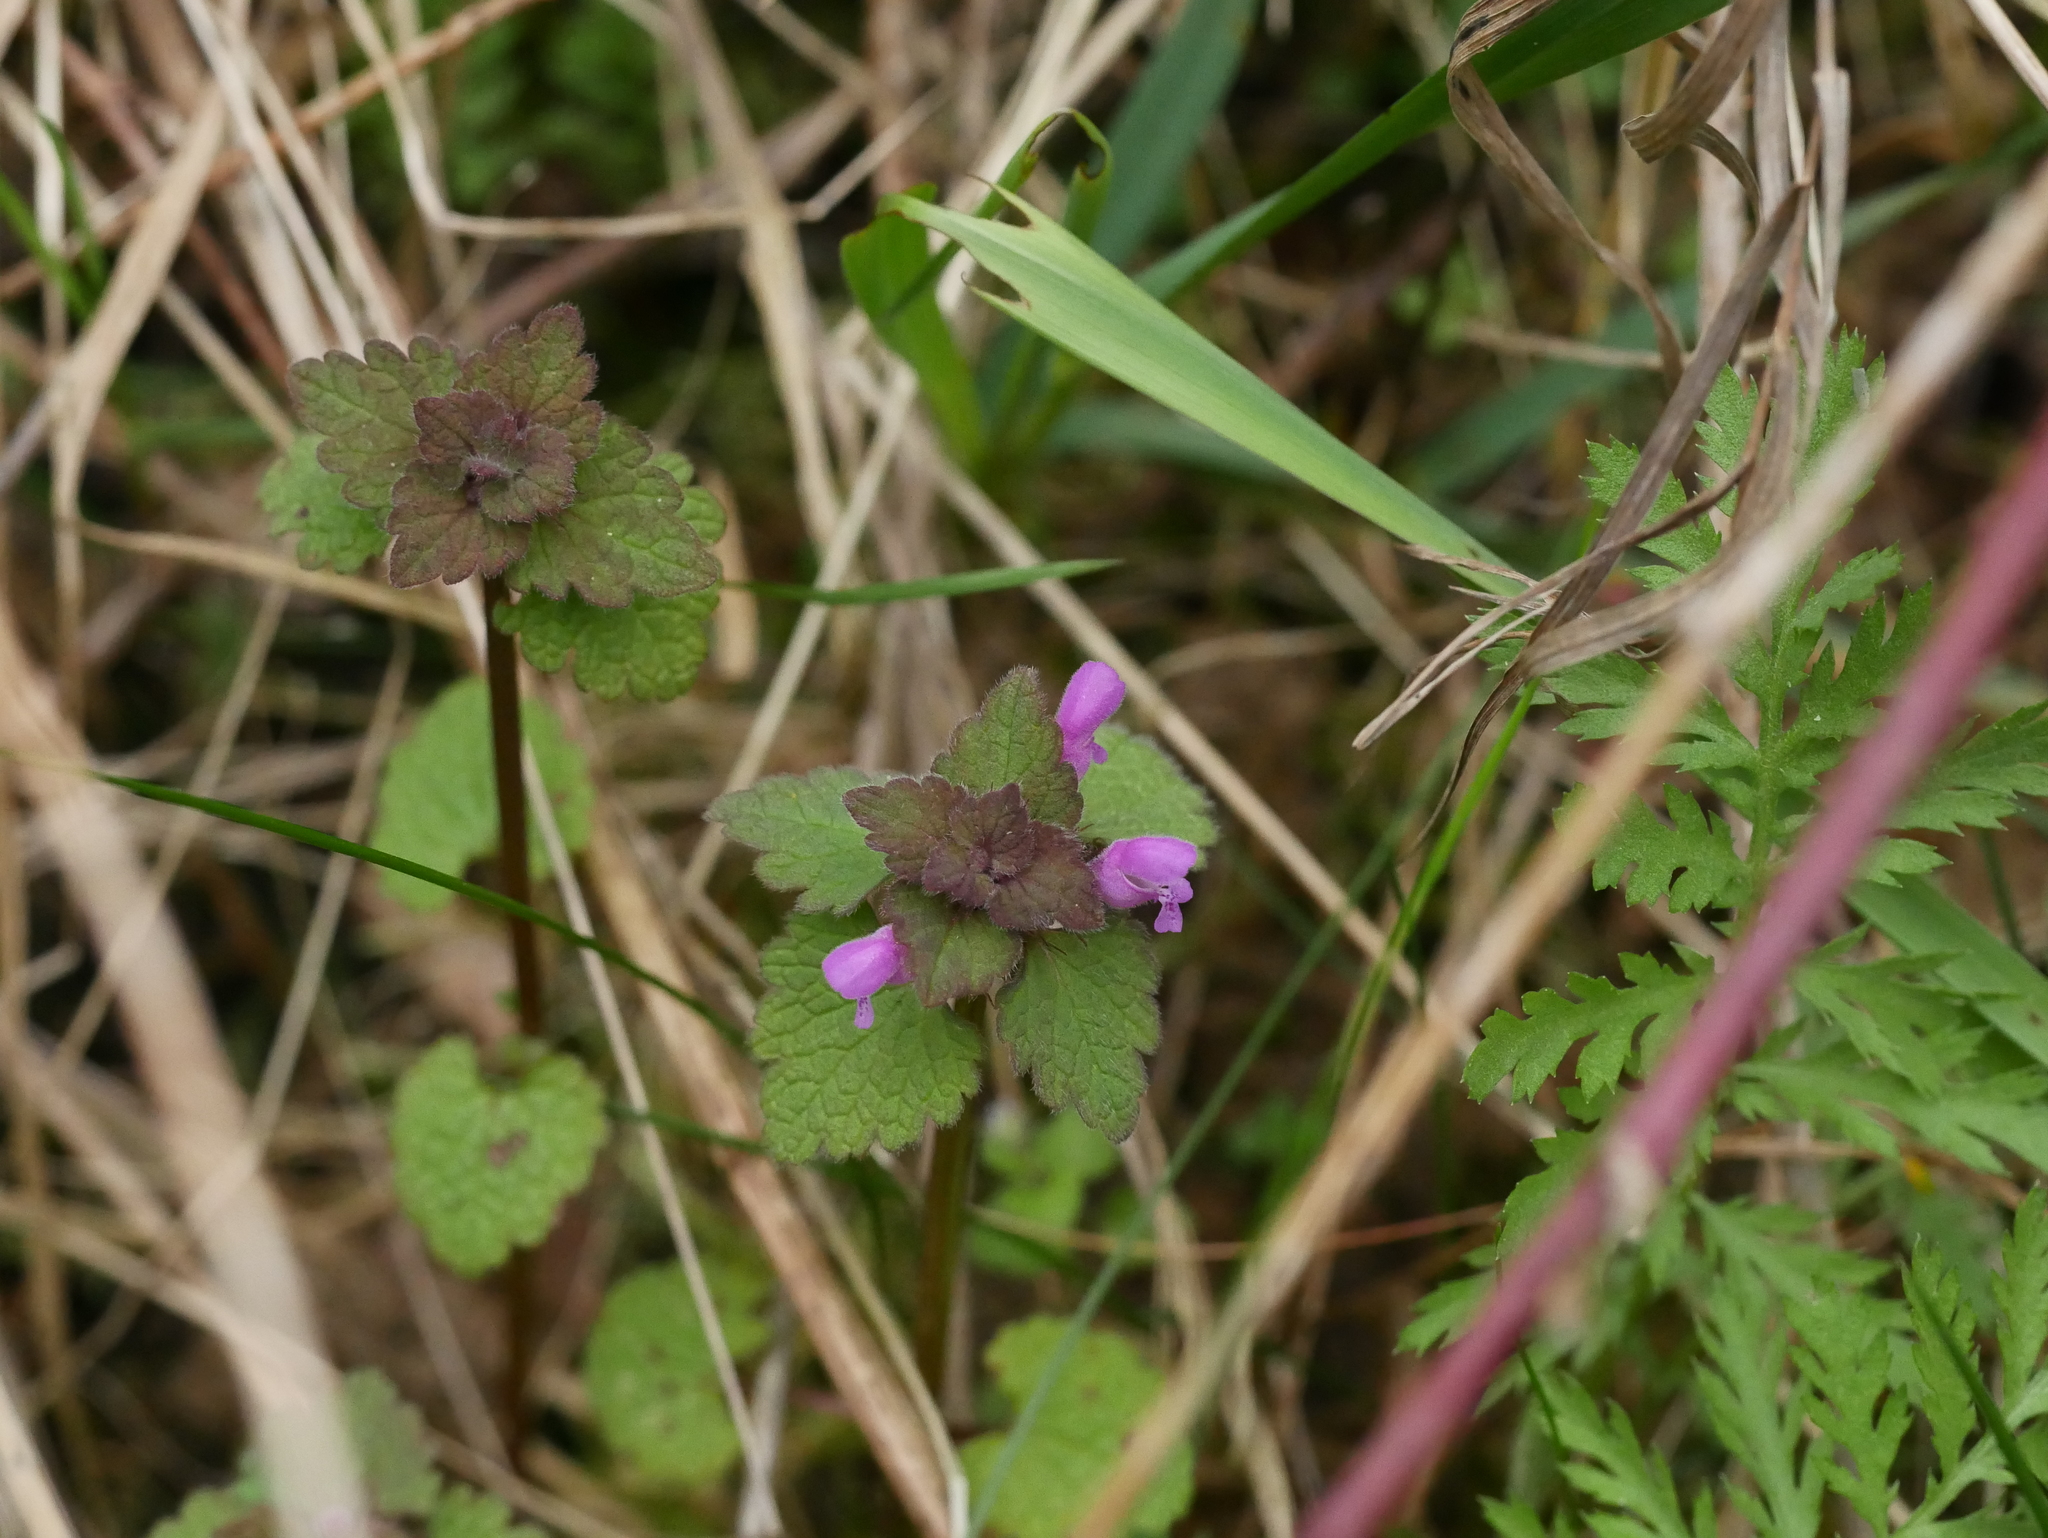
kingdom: Plantae
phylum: Tracheophyta
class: Magnoliopsida
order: Lamiales
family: Lamiaceae
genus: Lamium
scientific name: Lamium purpureum
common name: Red dead-nettle
